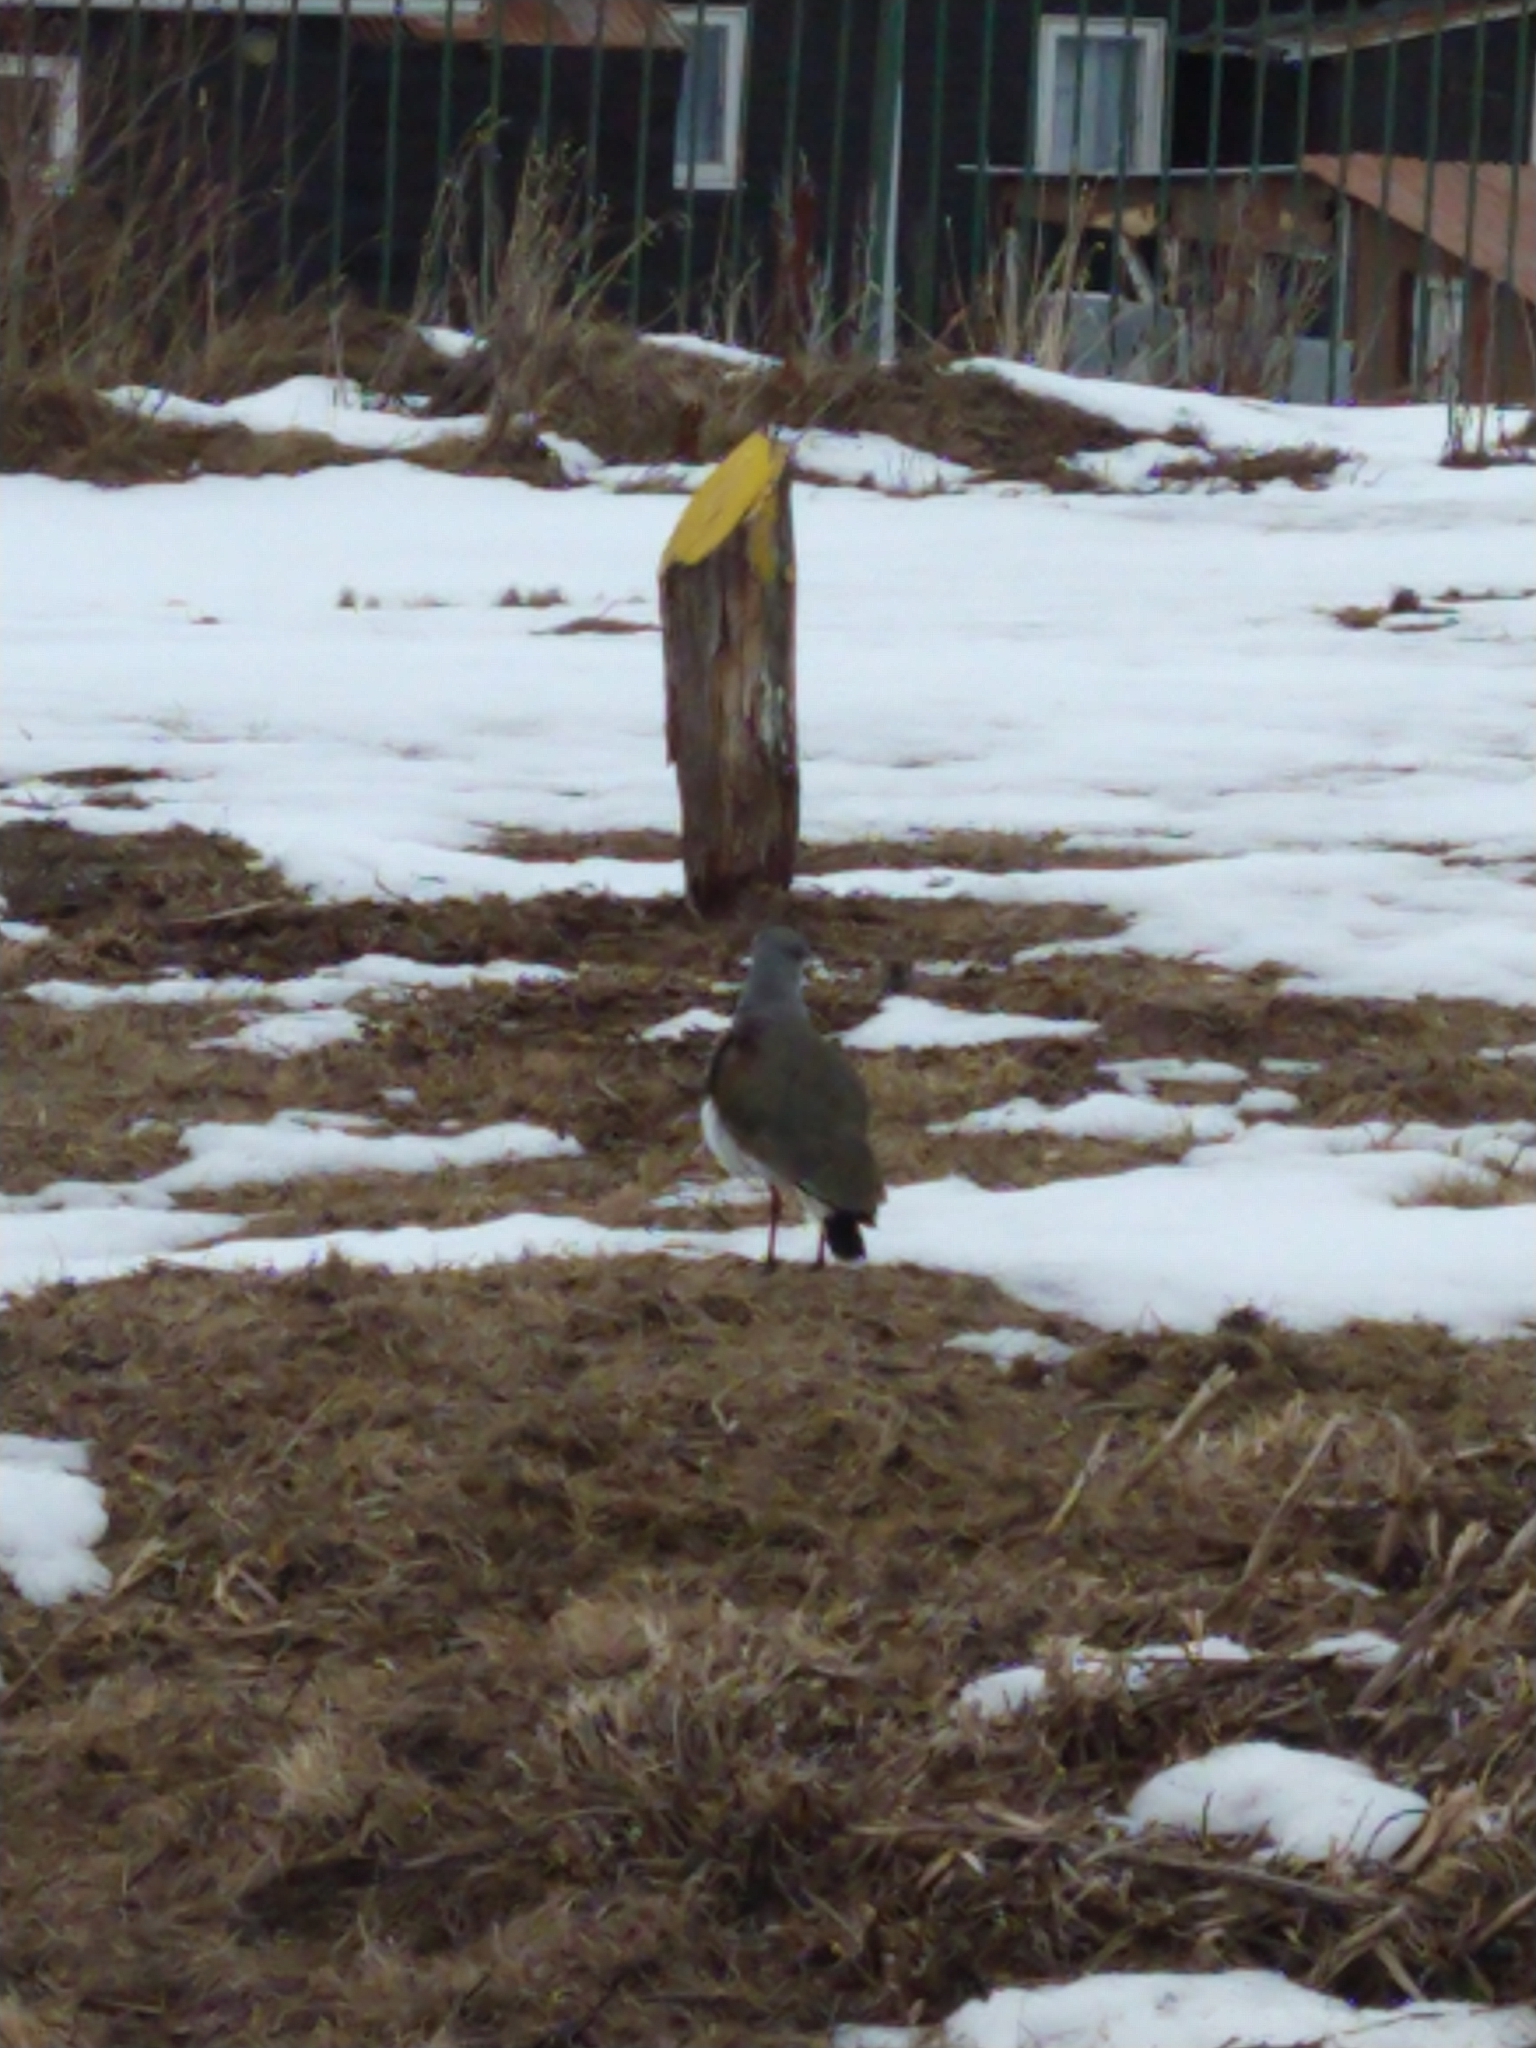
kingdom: Animalia
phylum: Chordata
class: Aves
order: Charadriiformes
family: Charadriidae
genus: Vanellus
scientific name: Vanellus chilensis
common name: Southern lapwing
